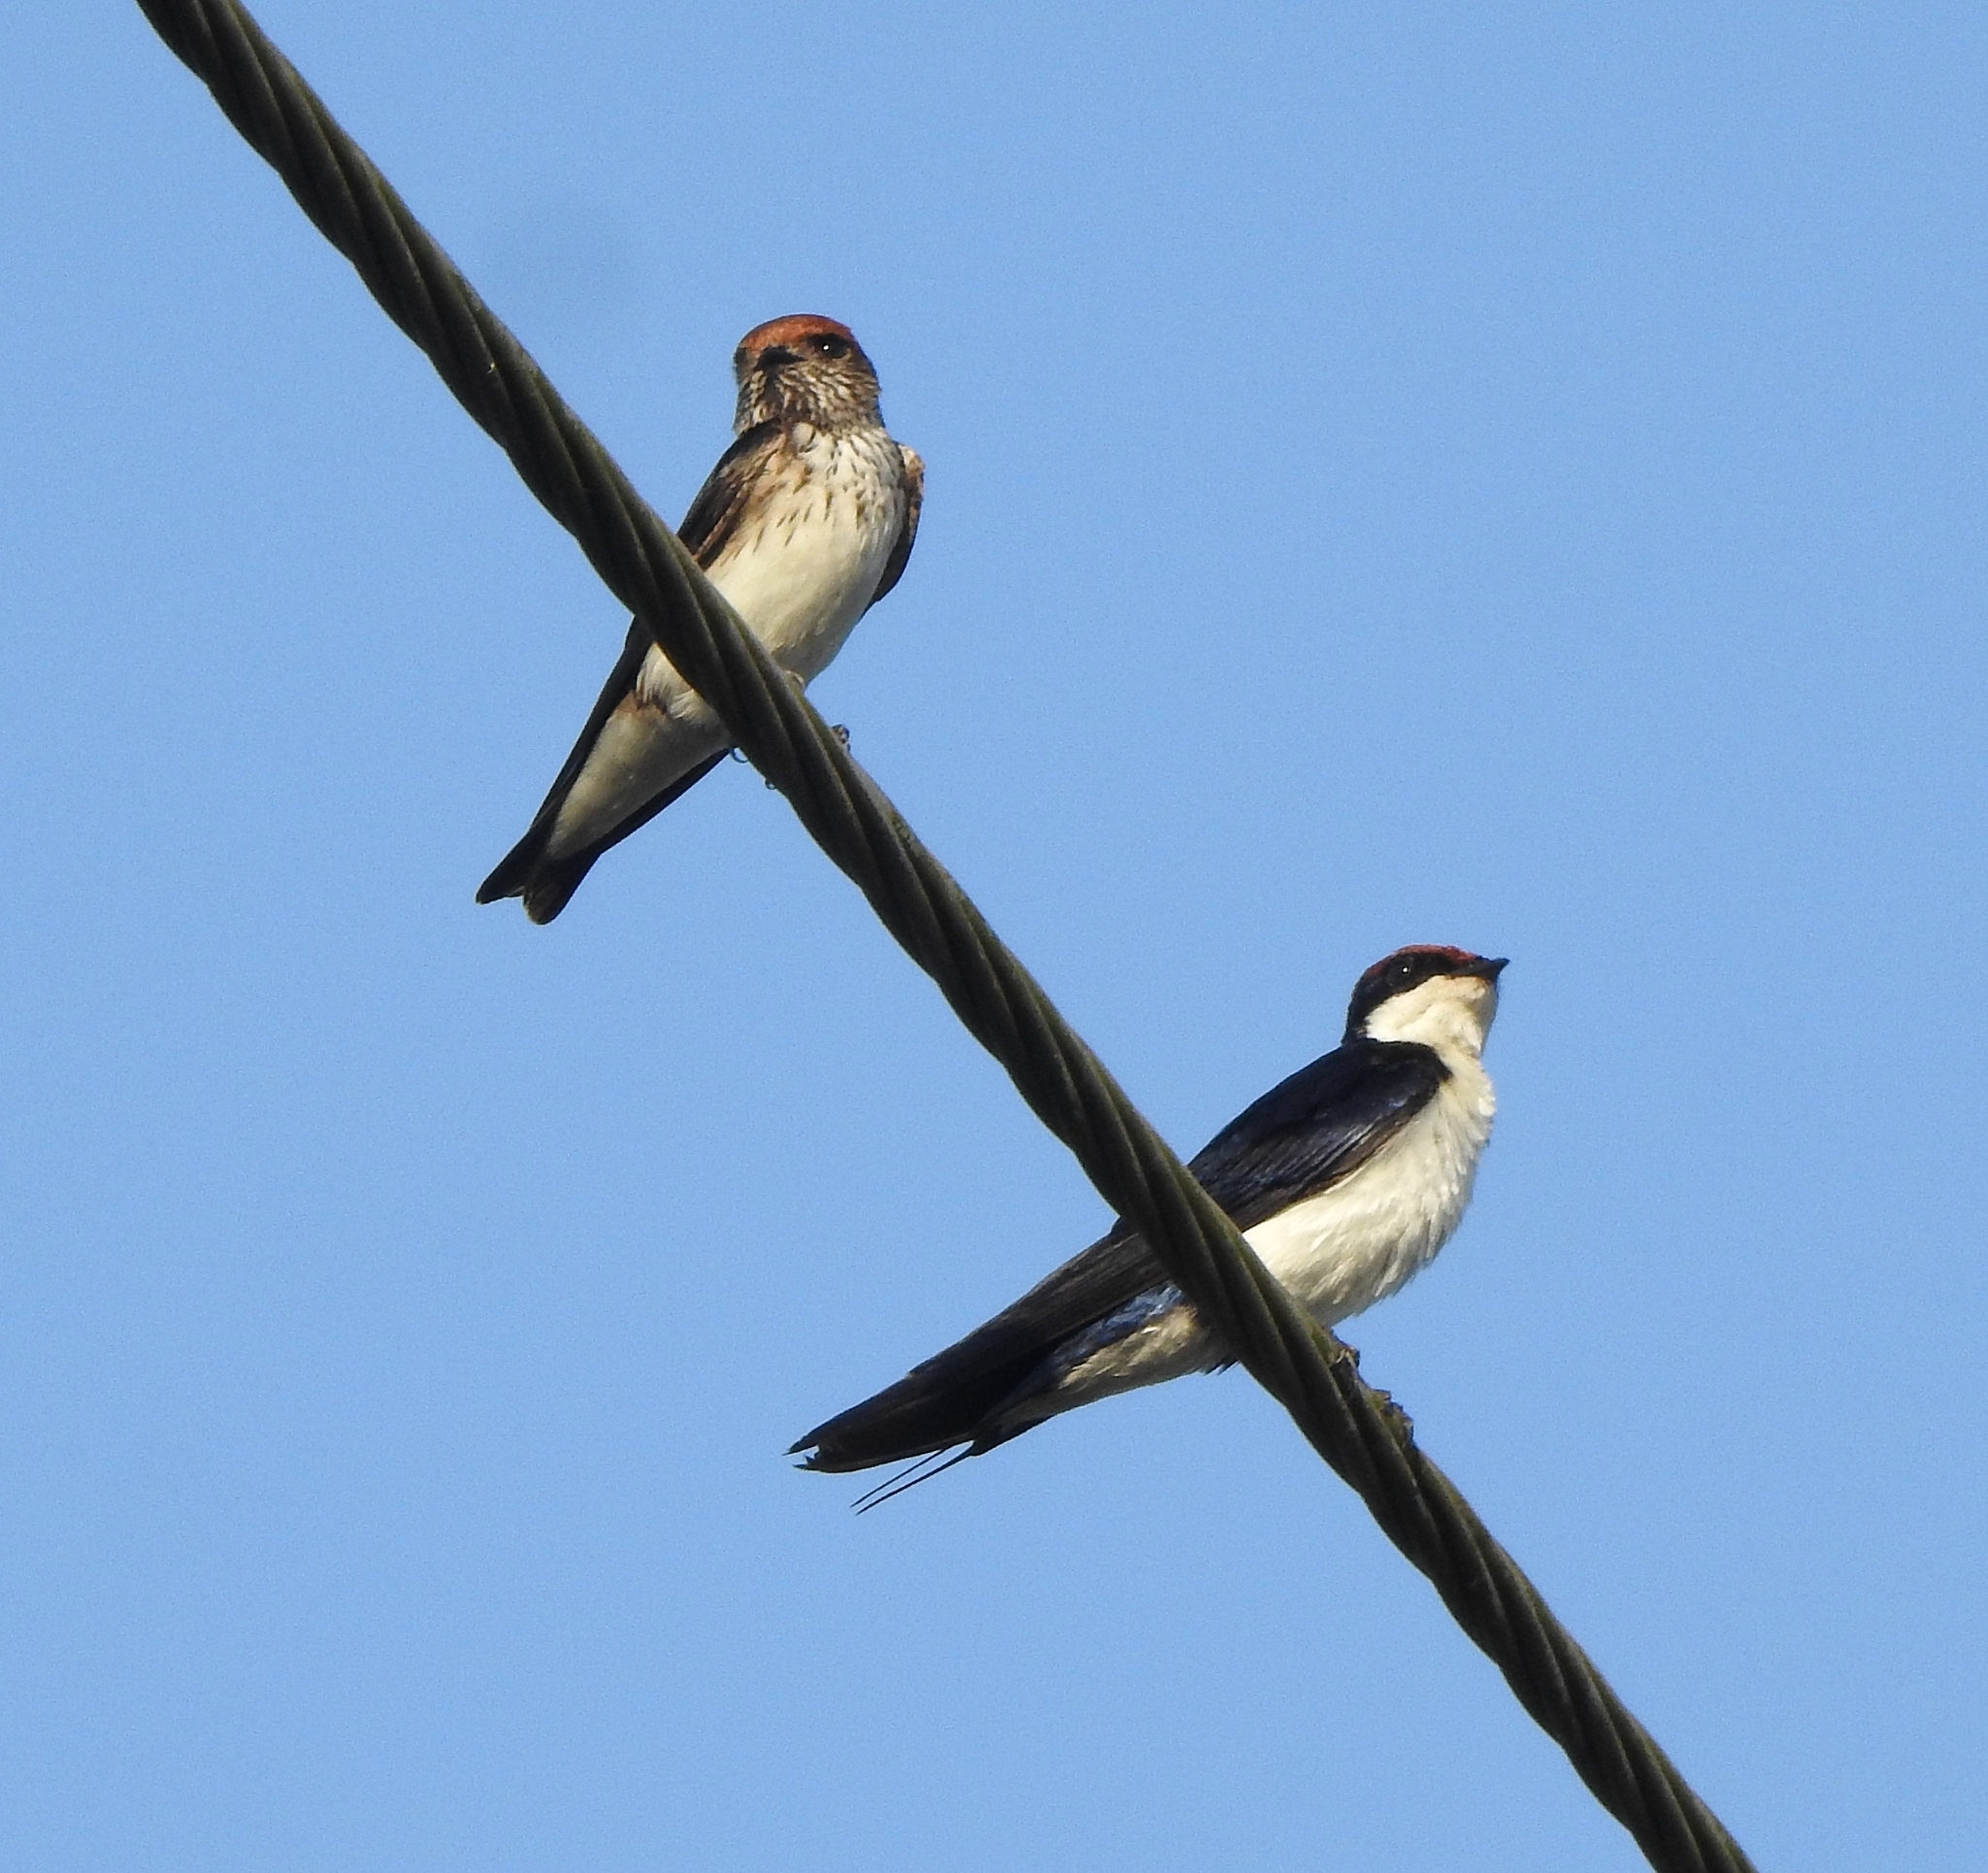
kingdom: Animalia
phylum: Chordata
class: Aves
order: Passeriformes
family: Hirundinidae
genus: Hirundo
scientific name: Hirundo smithii
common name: Wire-tailed swallow
